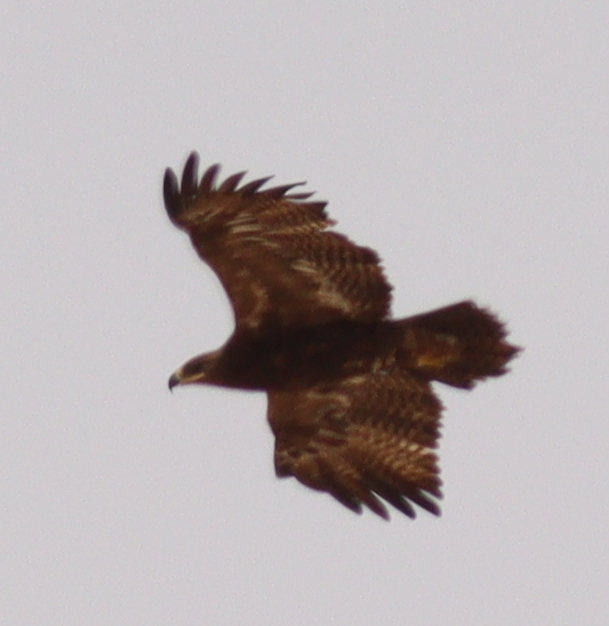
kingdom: Animalia
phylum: Chordata
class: Aves
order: Accipitriformes
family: Accipitridae
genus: Aquila
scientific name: Aquila nipalensis
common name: Steppe eagle
